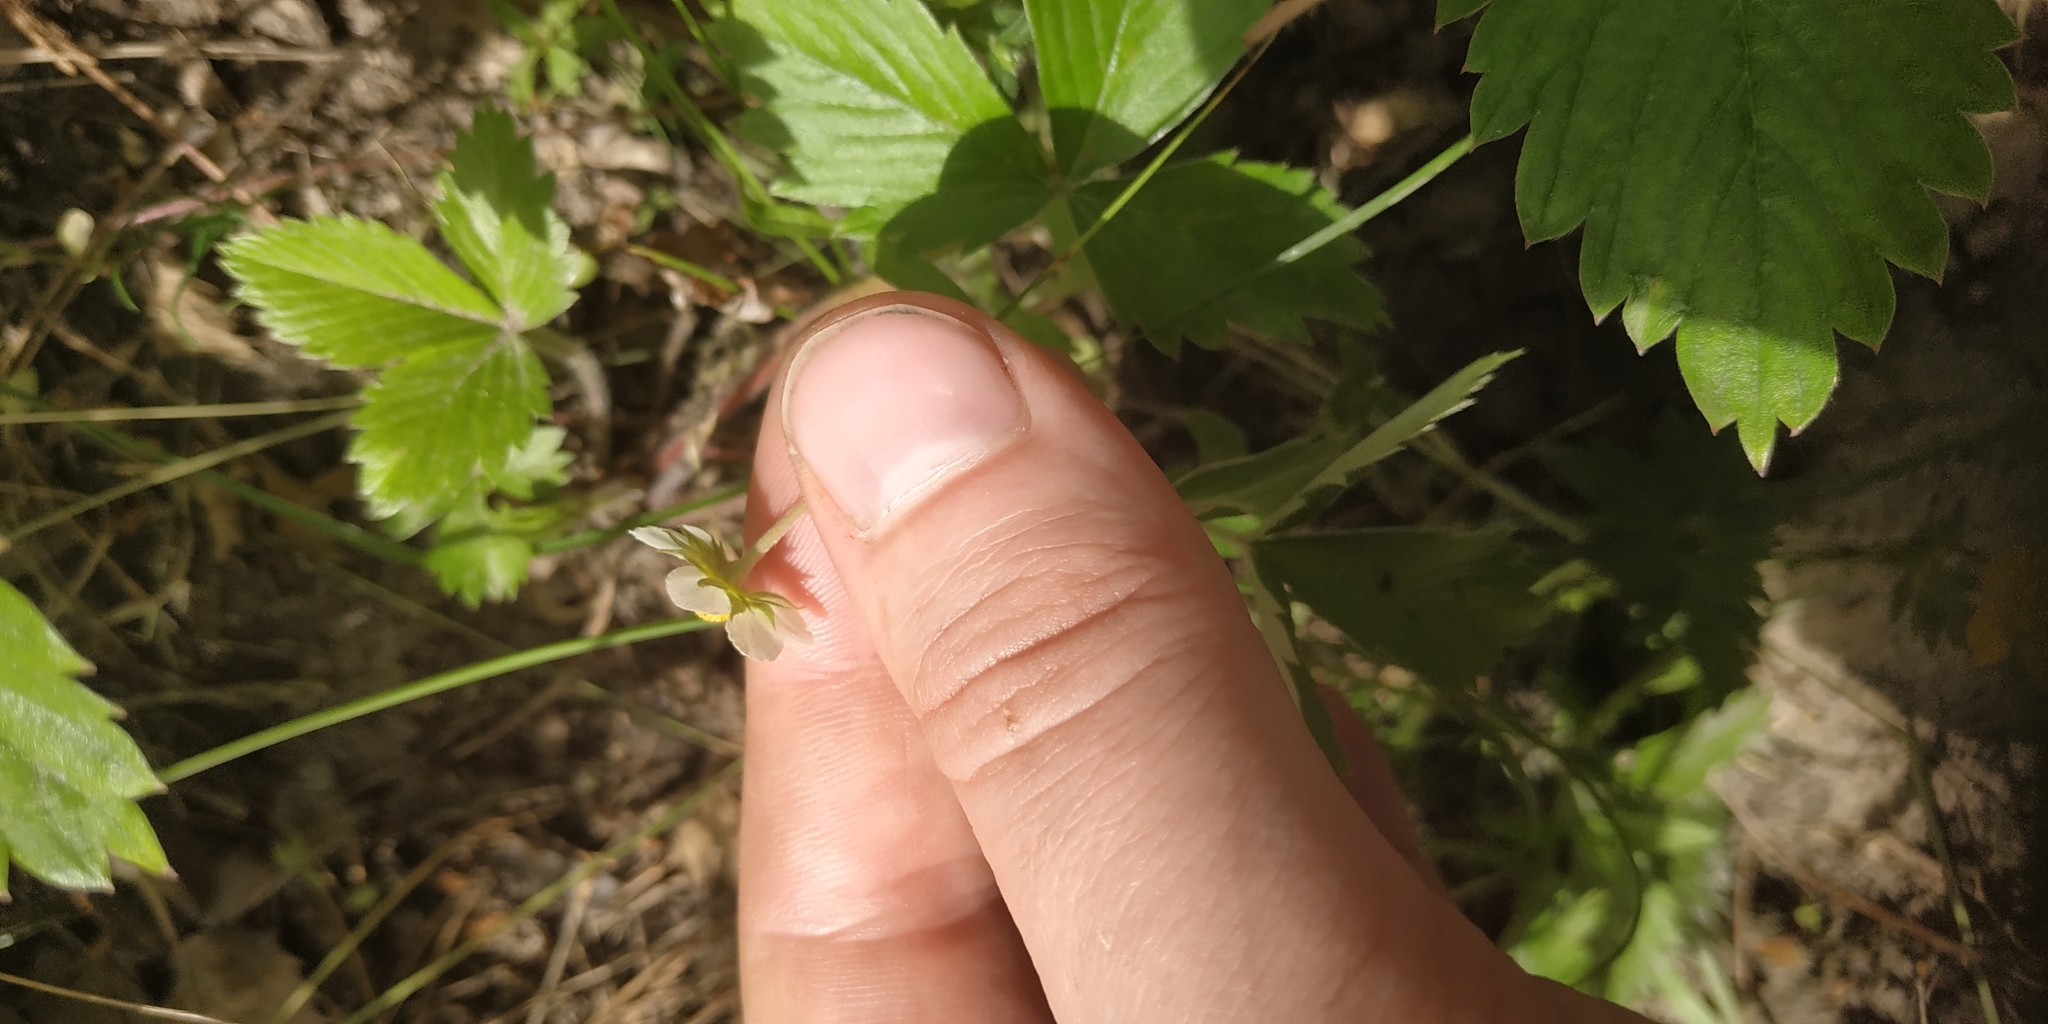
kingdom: Plantae
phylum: Tracheophyta
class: Magnoliopsida
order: Rosales
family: Rosaceae
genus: Fragaria
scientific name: Fragaria vesca
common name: Wild strawberry
